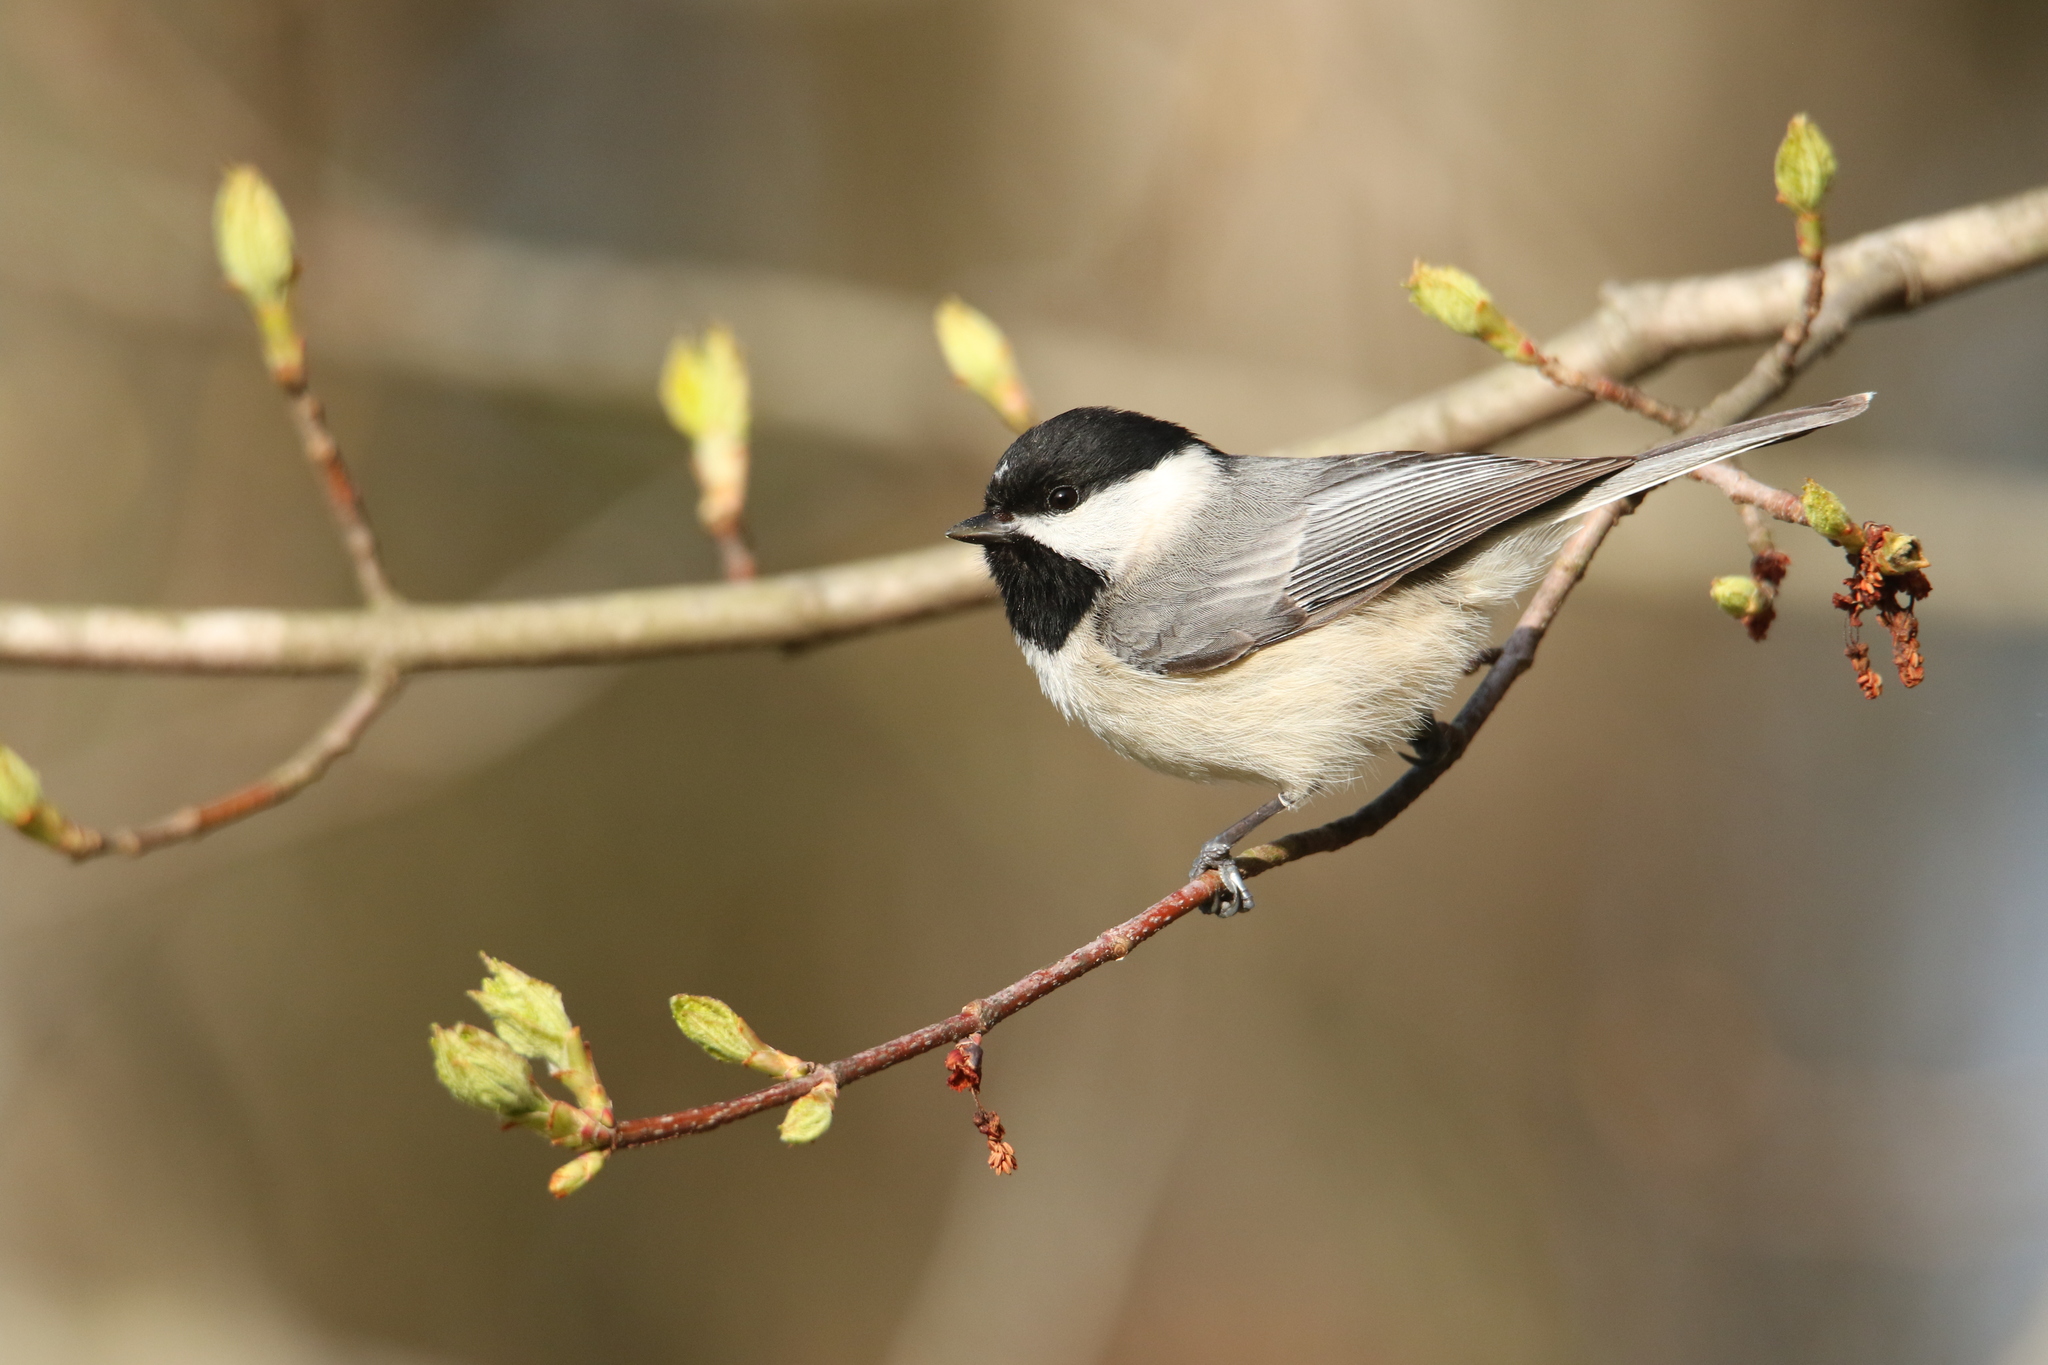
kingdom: Animalia
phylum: Chordata
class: Aves
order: Passeriformes
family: Paridae
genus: Poecile
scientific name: Poecile carolinensis
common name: Carolina chickadee
